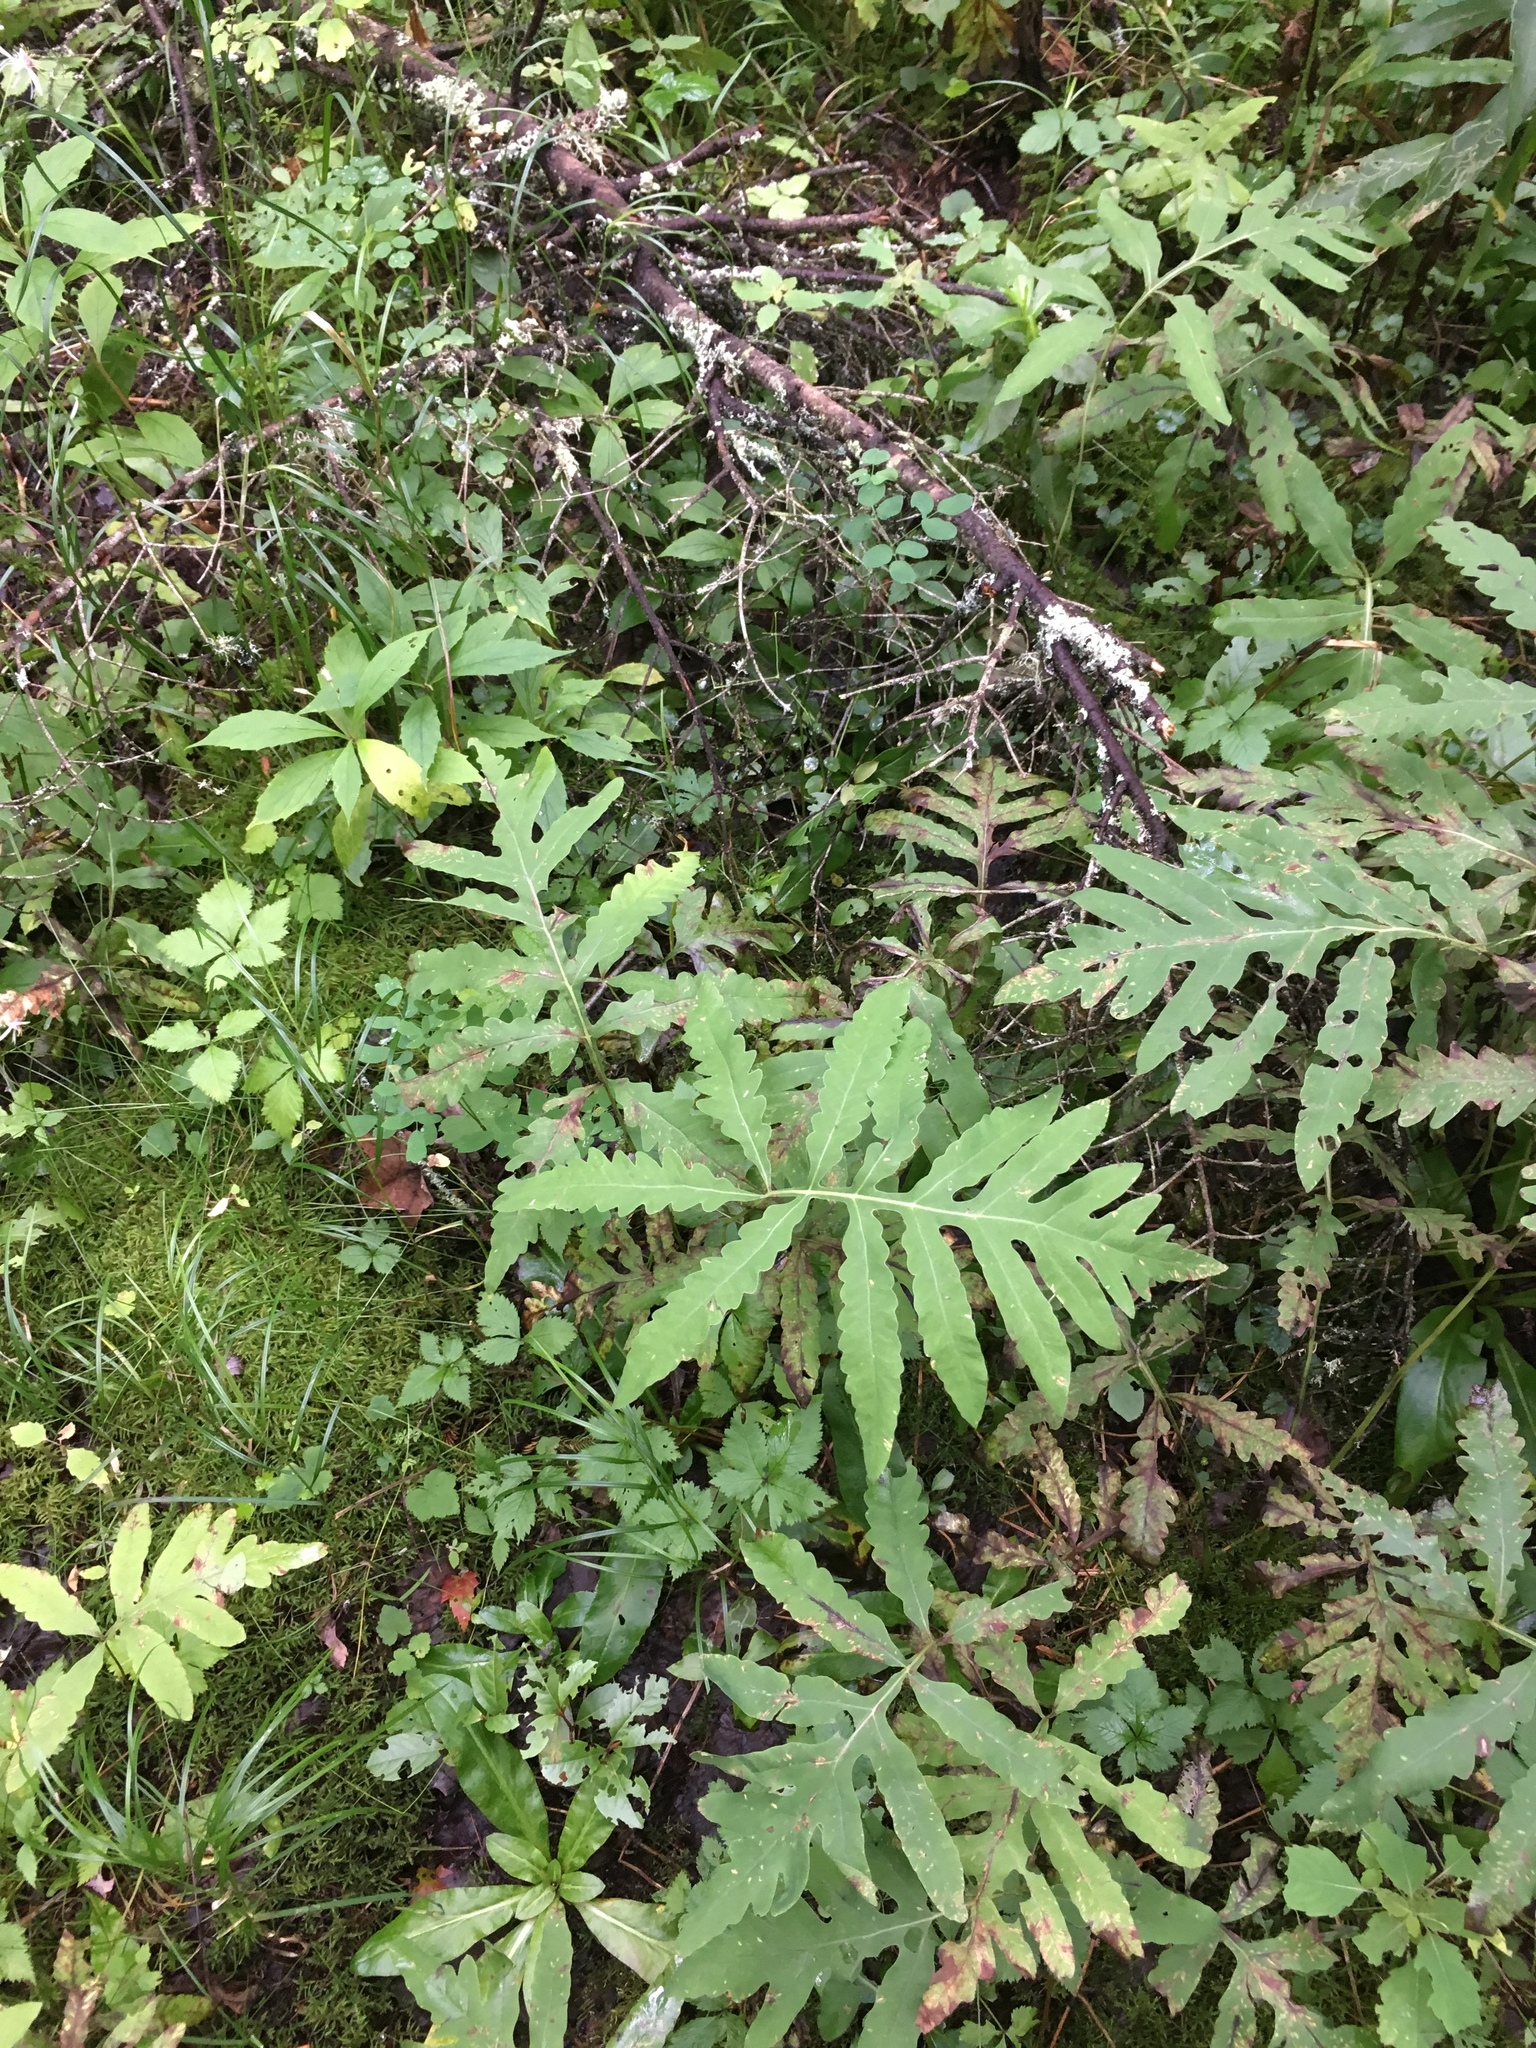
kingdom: Plantae
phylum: Tracheophyta
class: Polypodiopsida
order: Polypodiales
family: Onocleaceae
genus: Onoclea
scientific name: Onoclea sensibilis
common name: Sensitive fern
